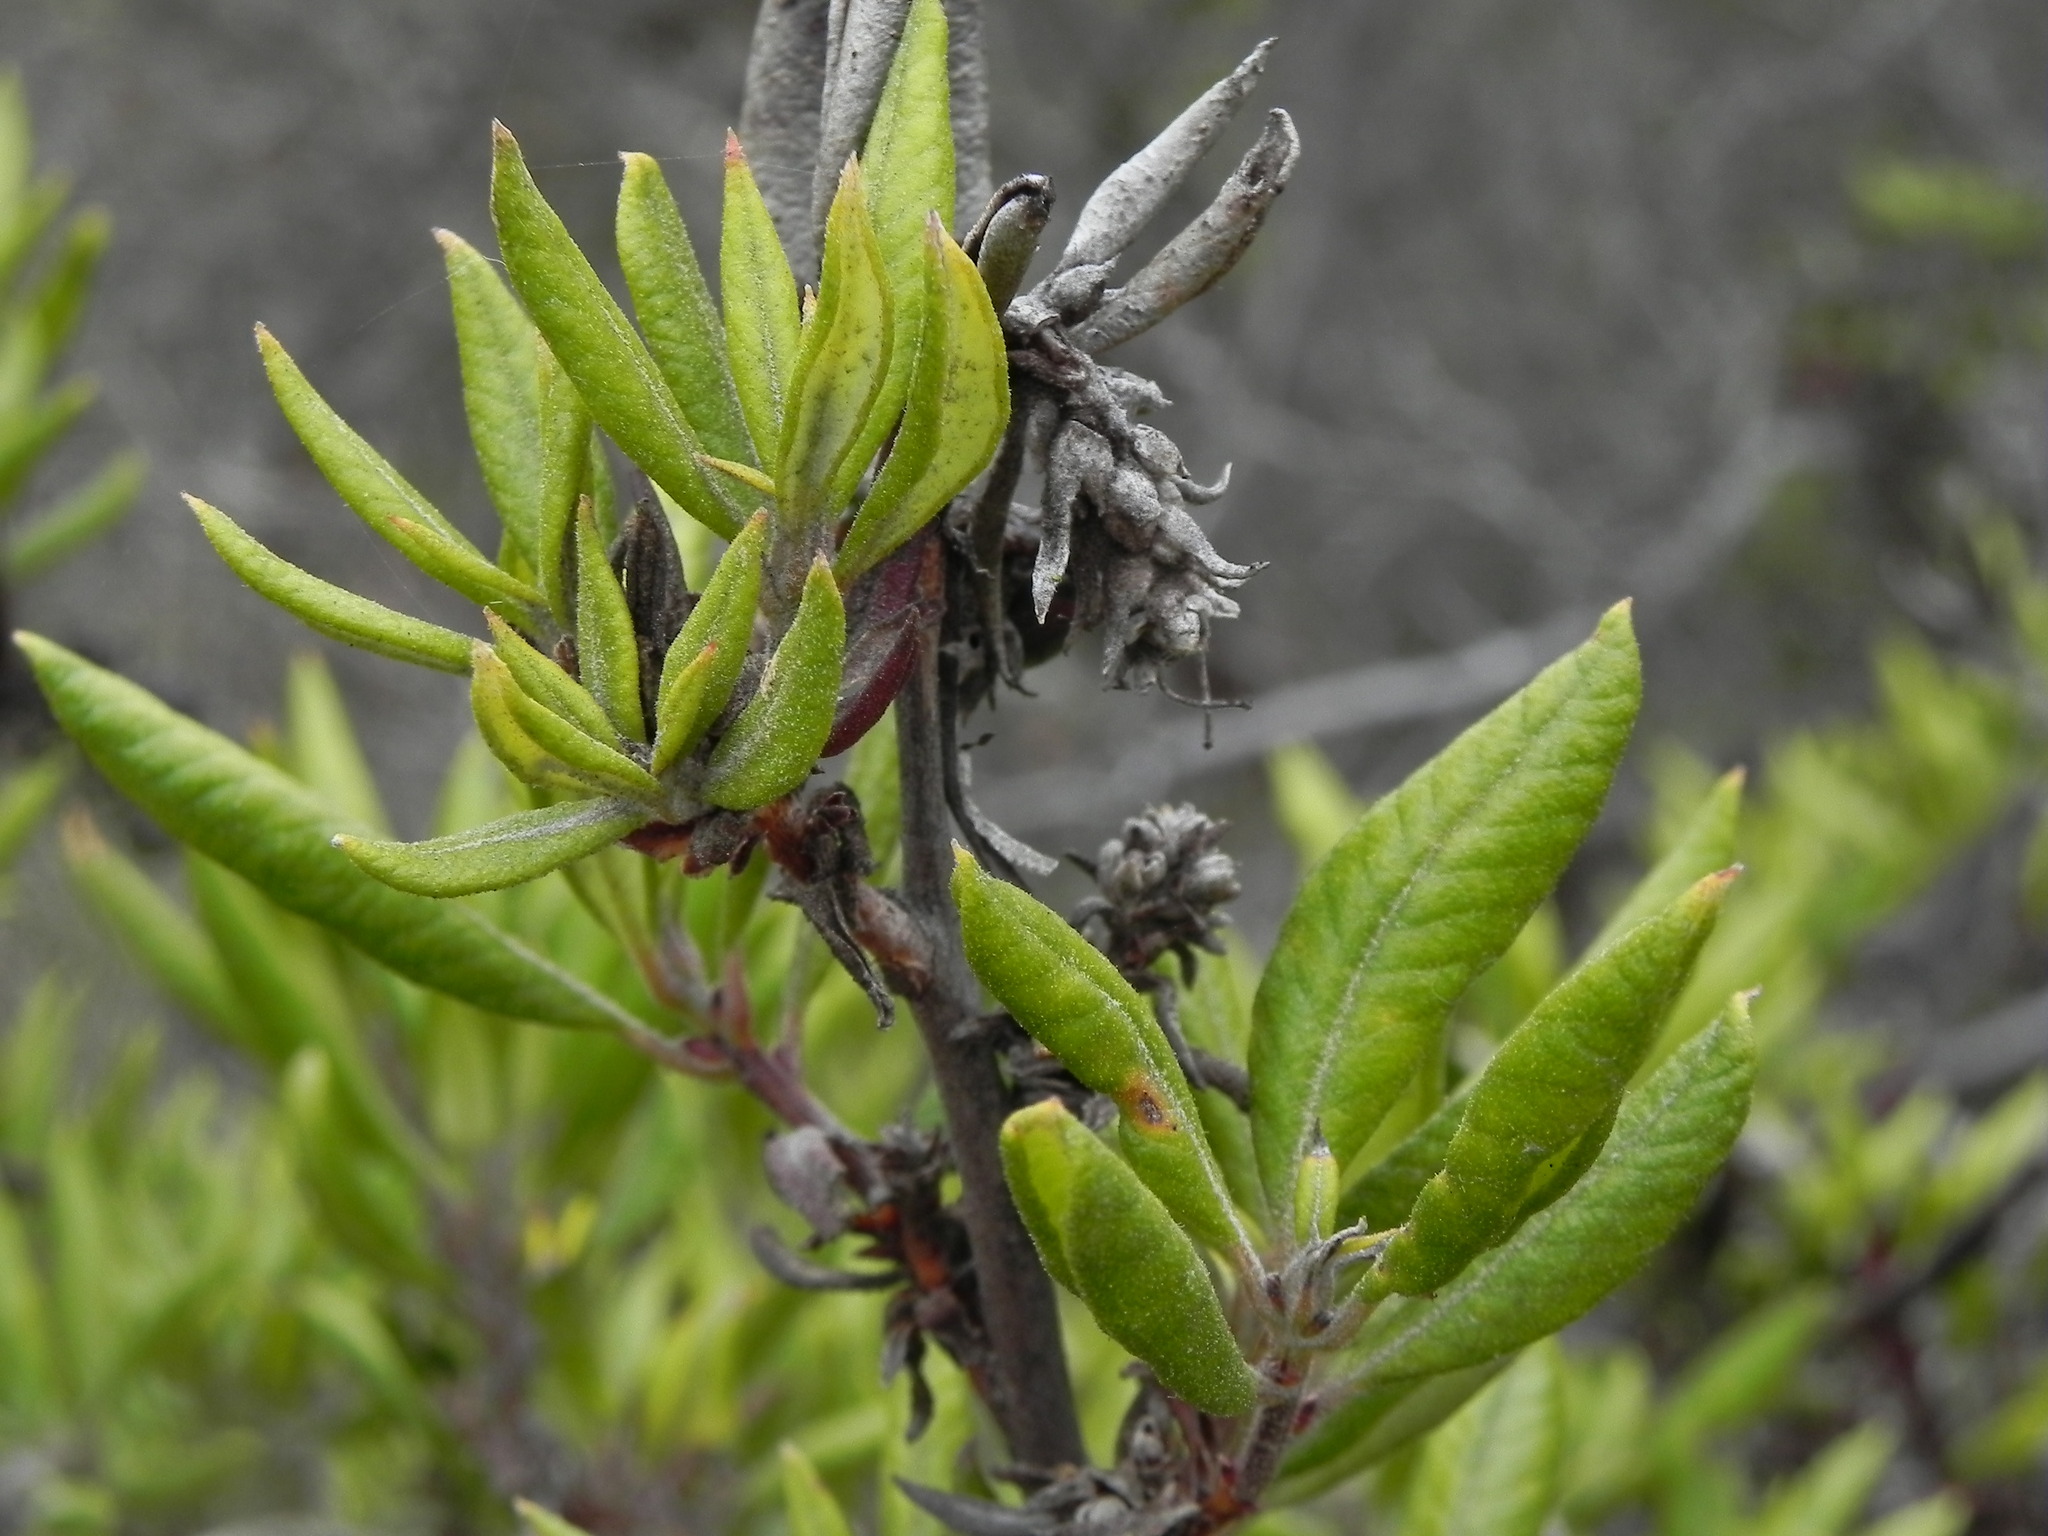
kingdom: Plantae
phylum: Tracheophyta
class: Magnoliopsida
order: Ericales
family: Ericaceae
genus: Arctostaphylos
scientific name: Arctostaphylos bicolor
